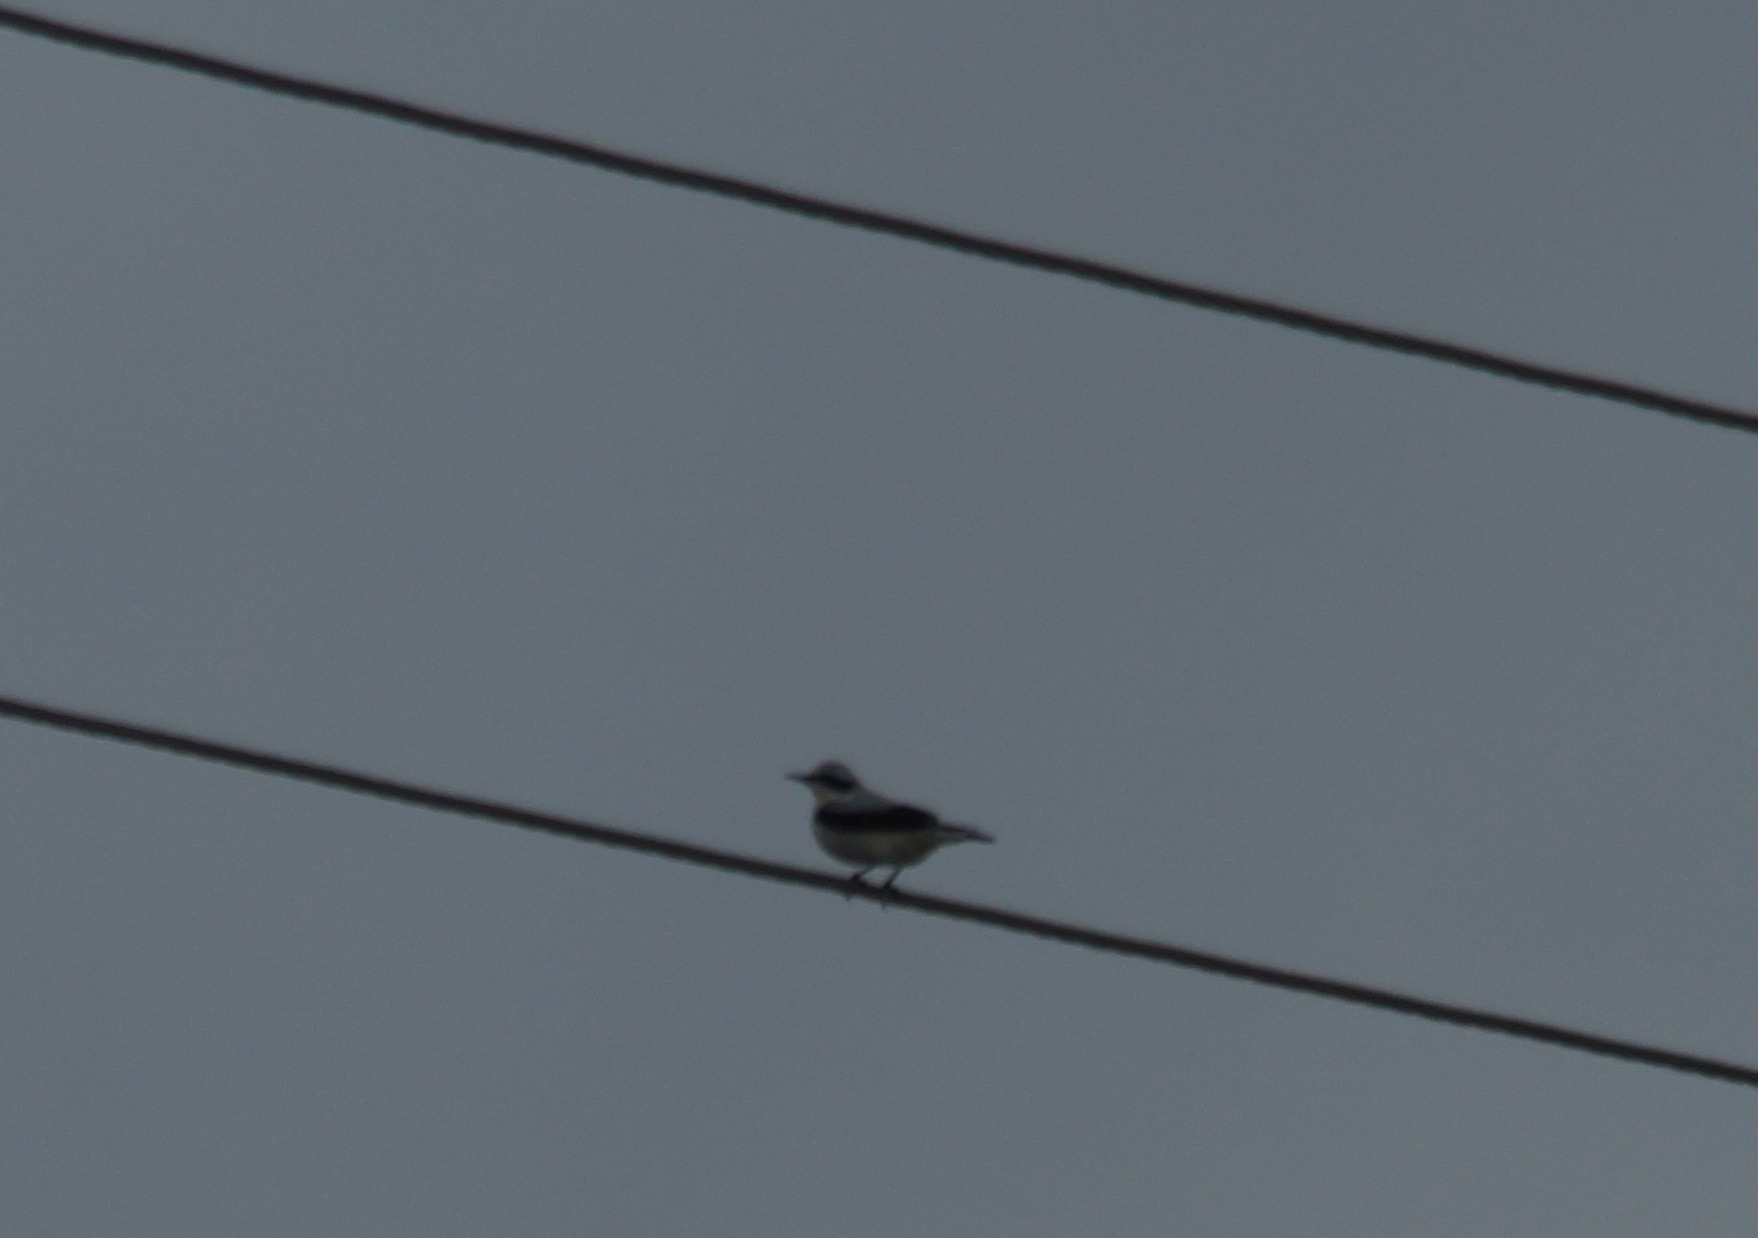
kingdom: Animalia
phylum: Chordata
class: Aves
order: Passeriformes
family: Muscicapidae
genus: Oenanthe
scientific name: Oenanthe oenanthe
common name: Northern wheatear
